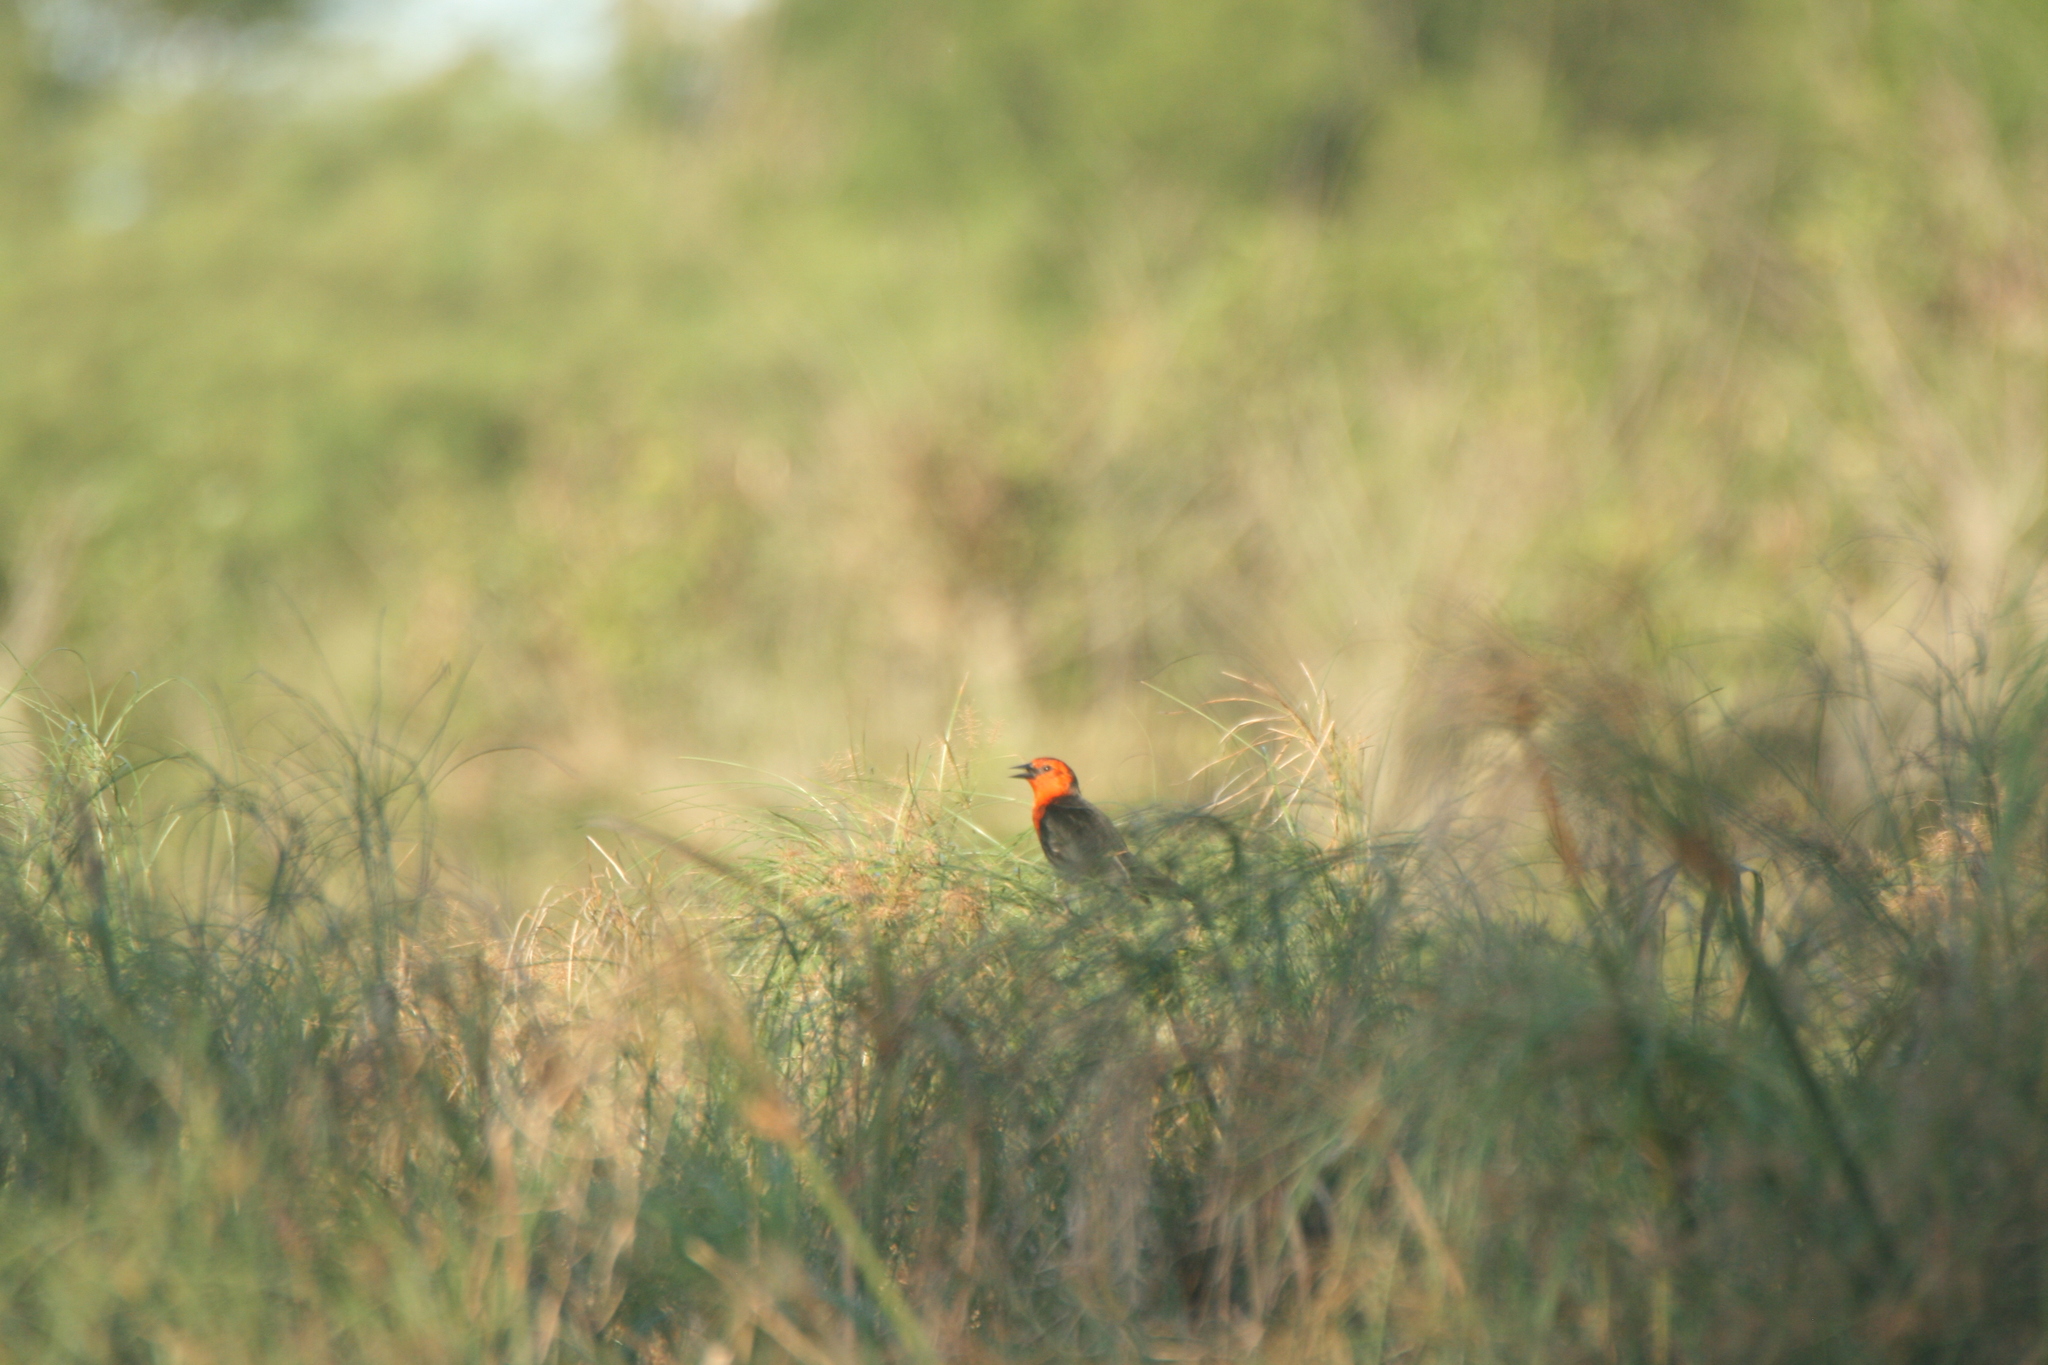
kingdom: Animalia
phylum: Chordata
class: Aves
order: Passeriformes
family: Icteridae
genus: Amblyramphus
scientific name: Amblyramphus holosericeus
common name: Scarlet-headed blackbird
